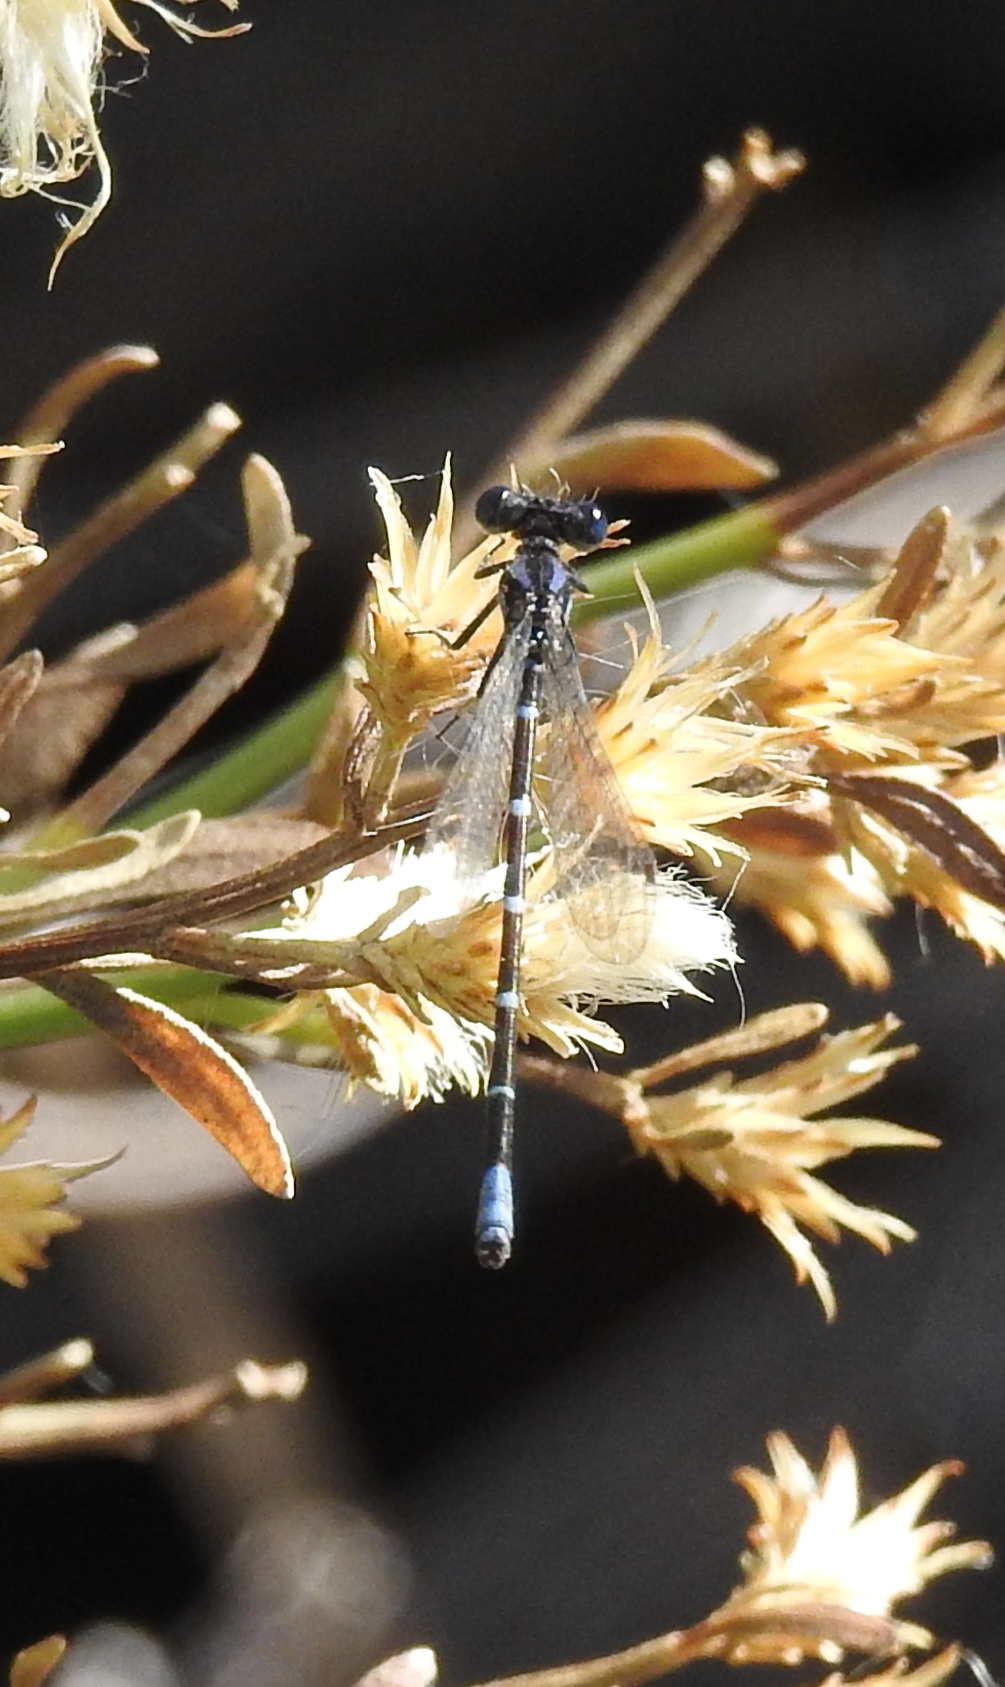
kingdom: Animalia
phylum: Arthropoda
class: Insecta
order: Odonata
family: Coenagrionidae
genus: Argia
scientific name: Argia sedula
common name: Blue-ringed dancer
